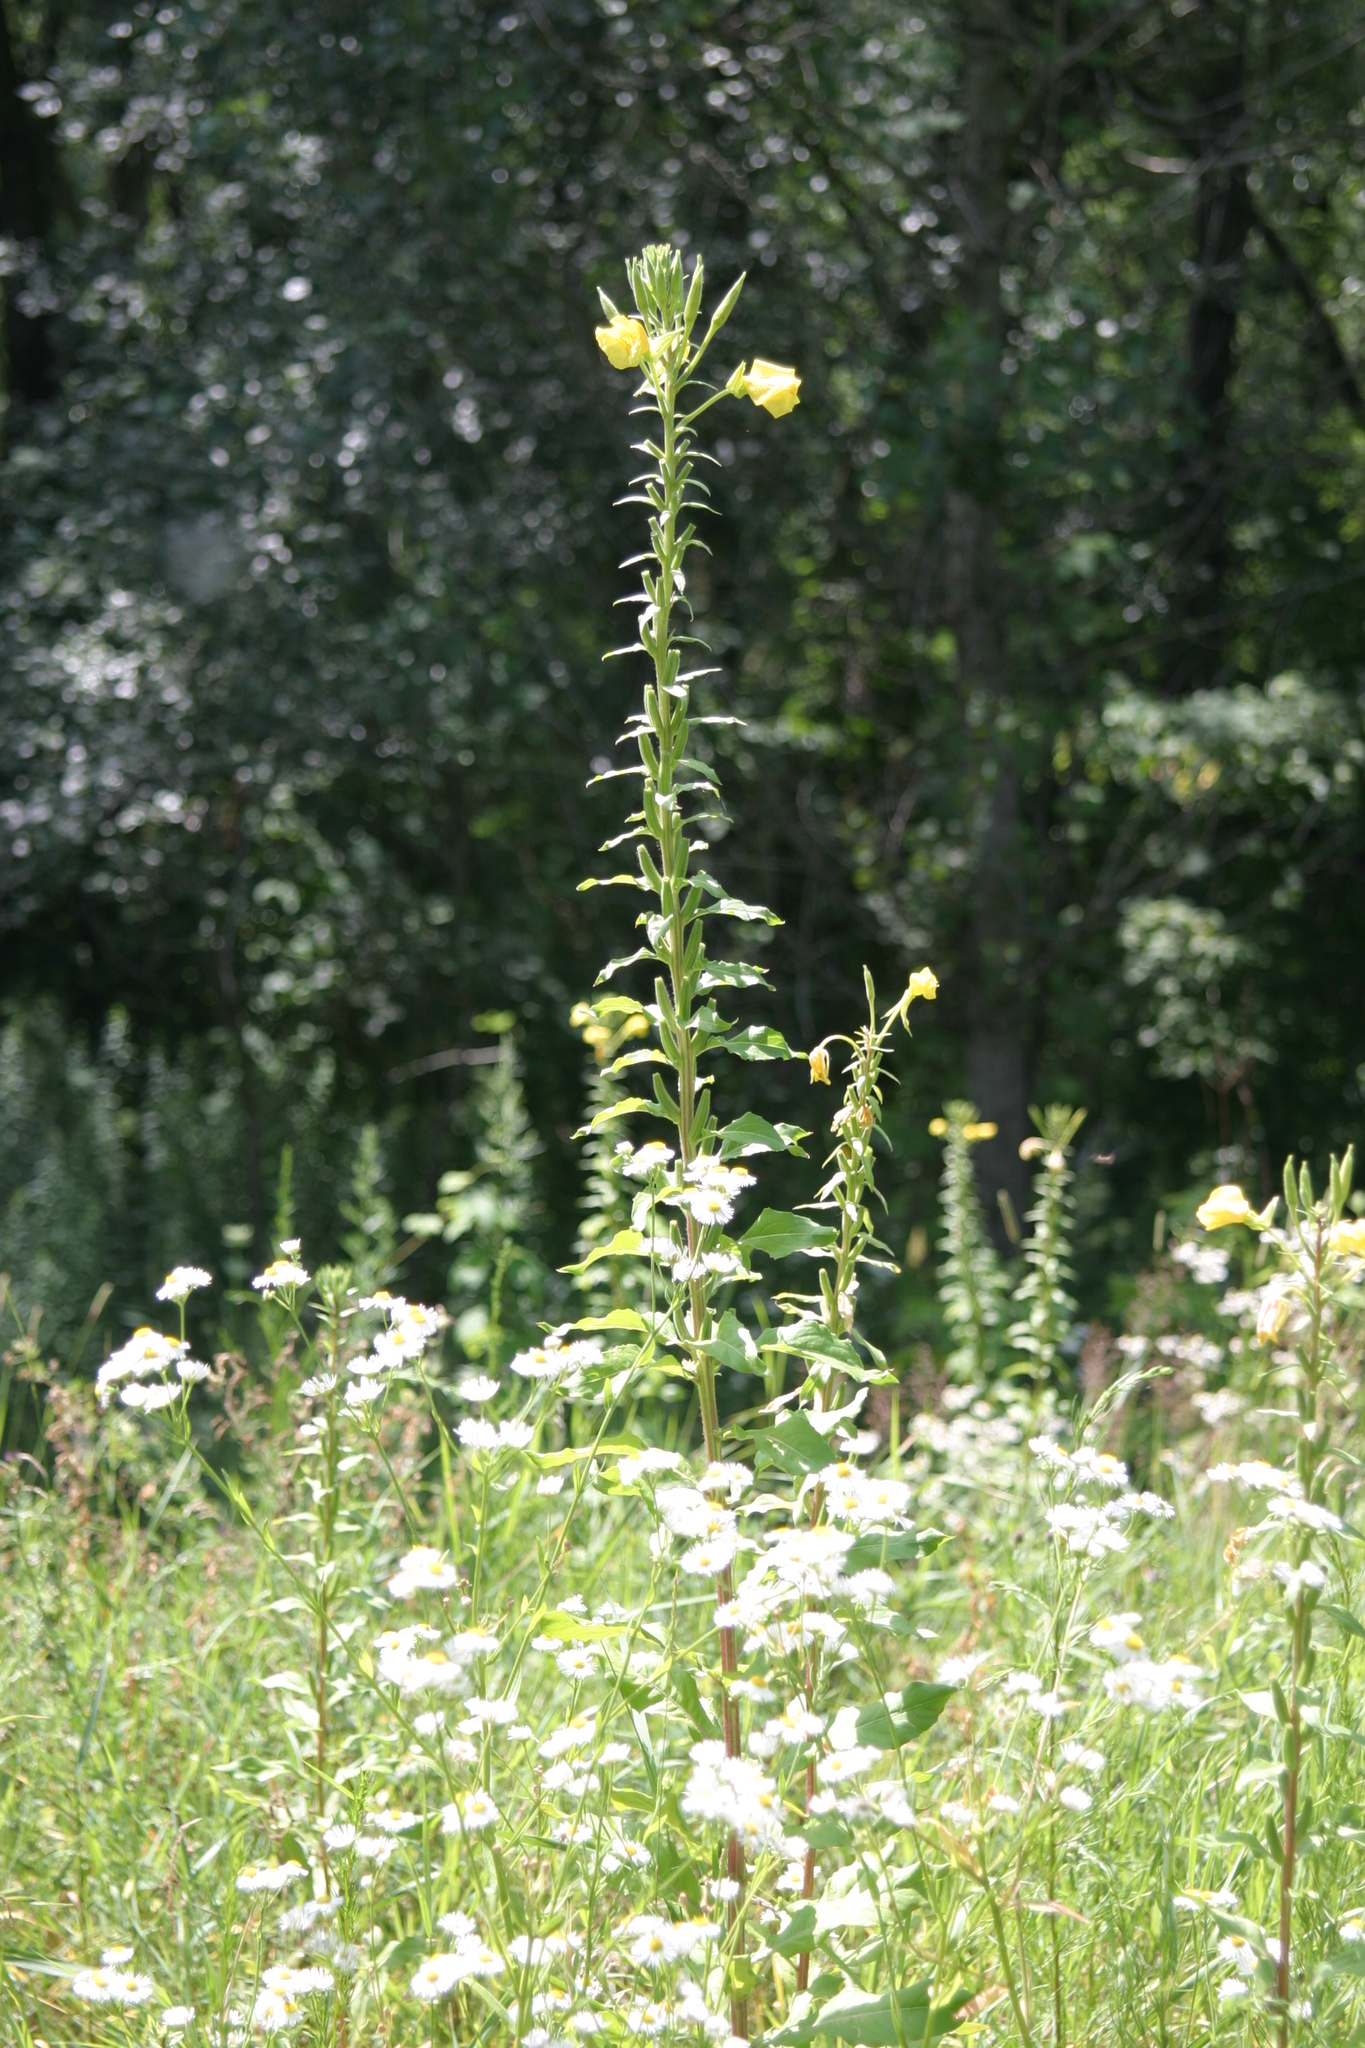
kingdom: Plantae
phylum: Tracheophyta
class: Magnoliopsida
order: Myrtales
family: Onagraceae
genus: Oenothera
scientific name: Oenothera biennis
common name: Common evening-primrose
